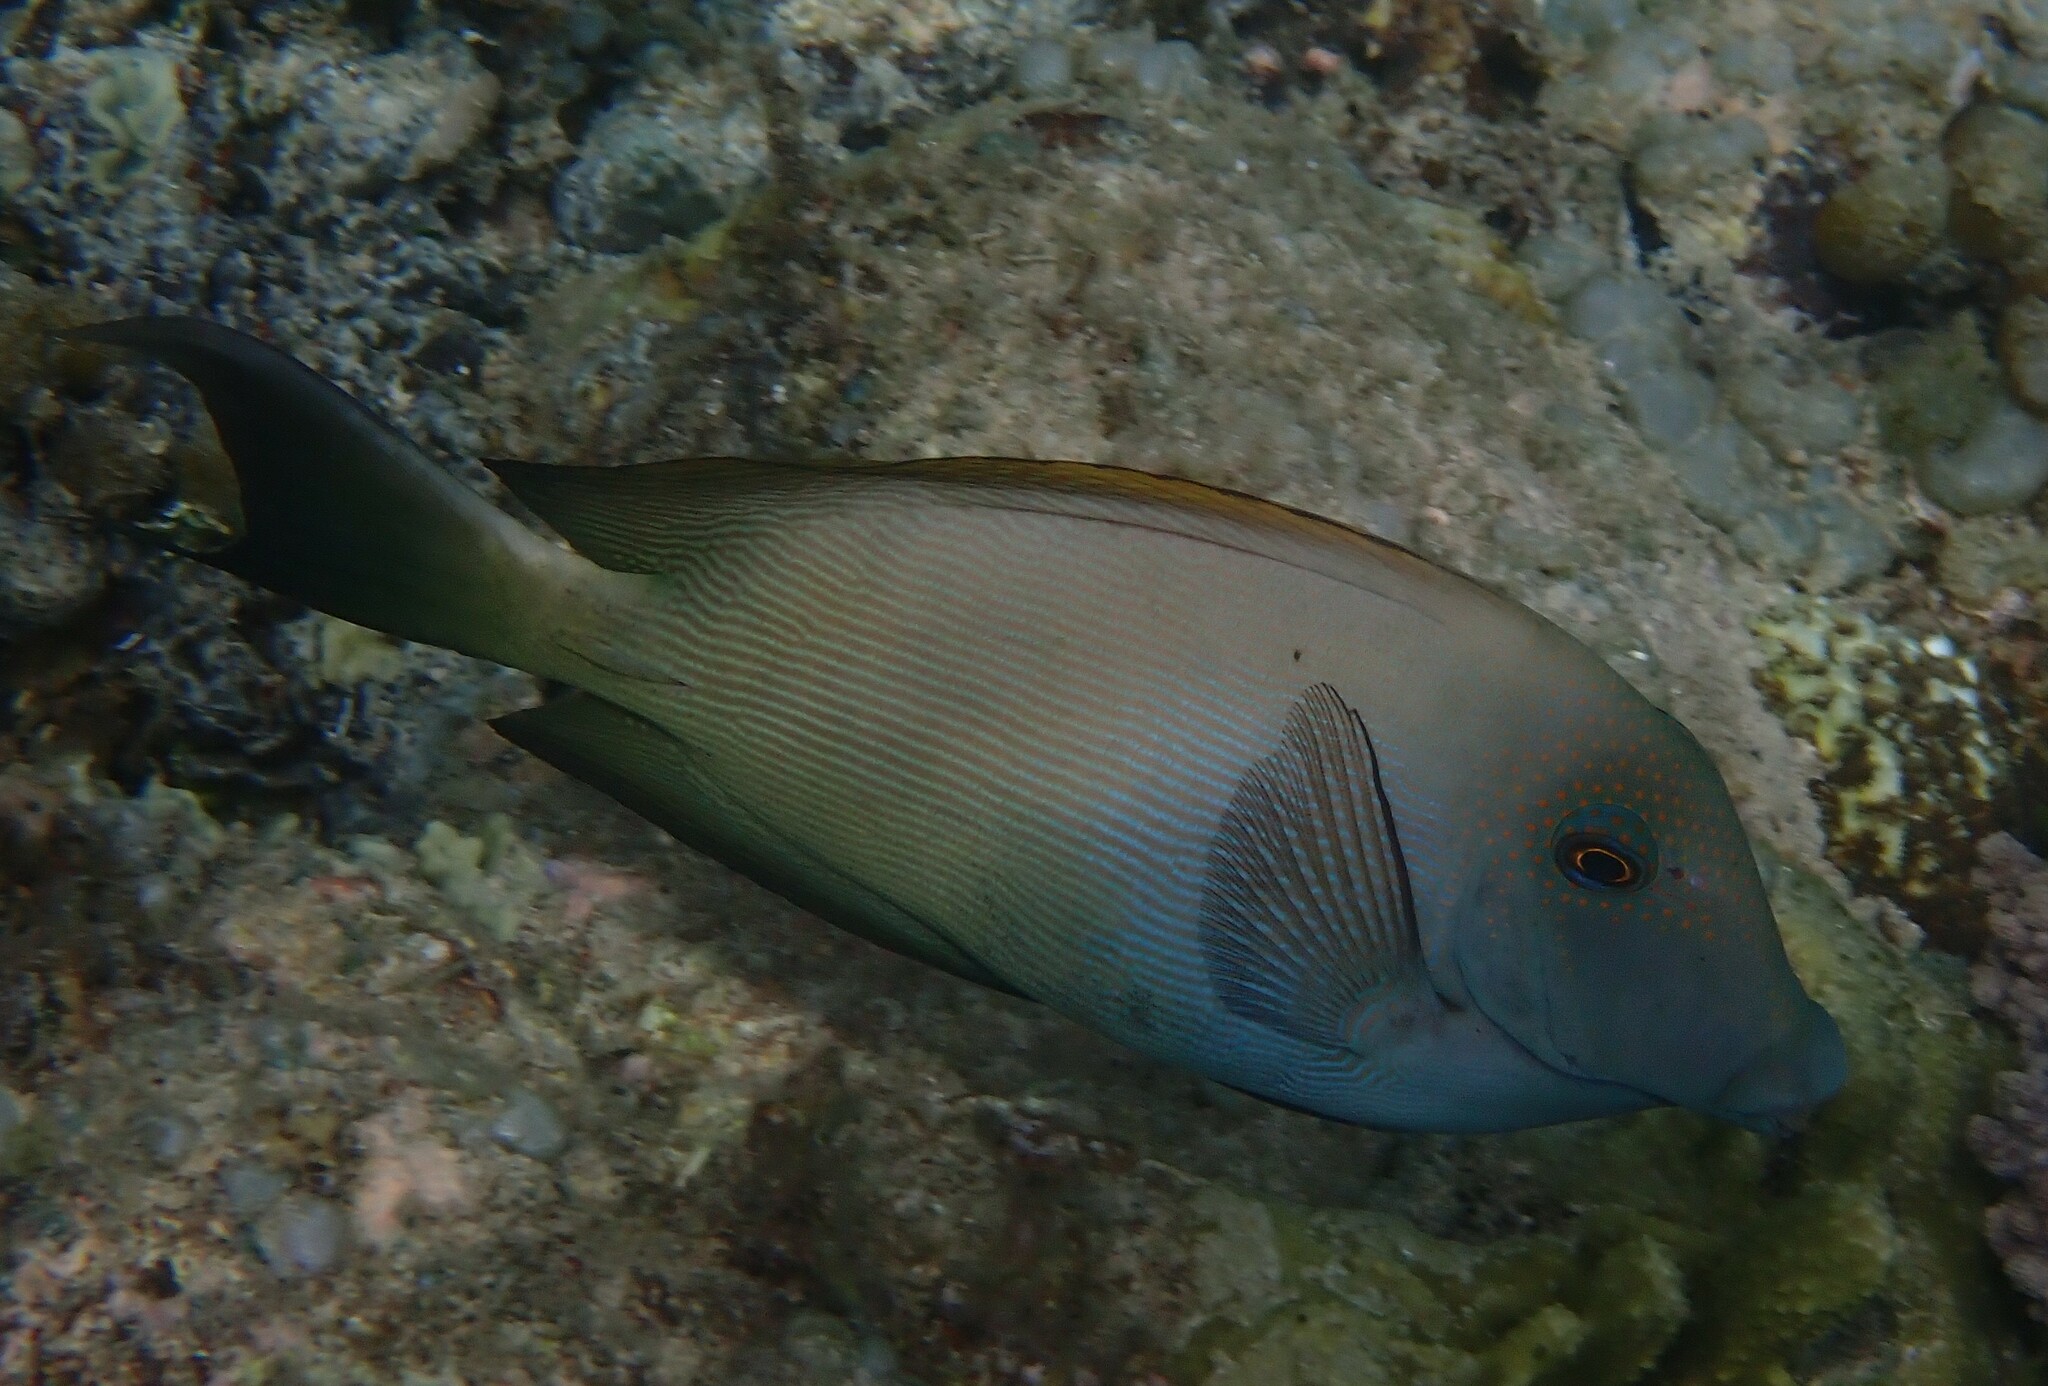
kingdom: Animalia
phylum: Chordata
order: Perciformes
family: Acanthuridae
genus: Ctenochaetus
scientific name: Ctenochaetus striatus
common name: Bristle-toothed surgeonfish
